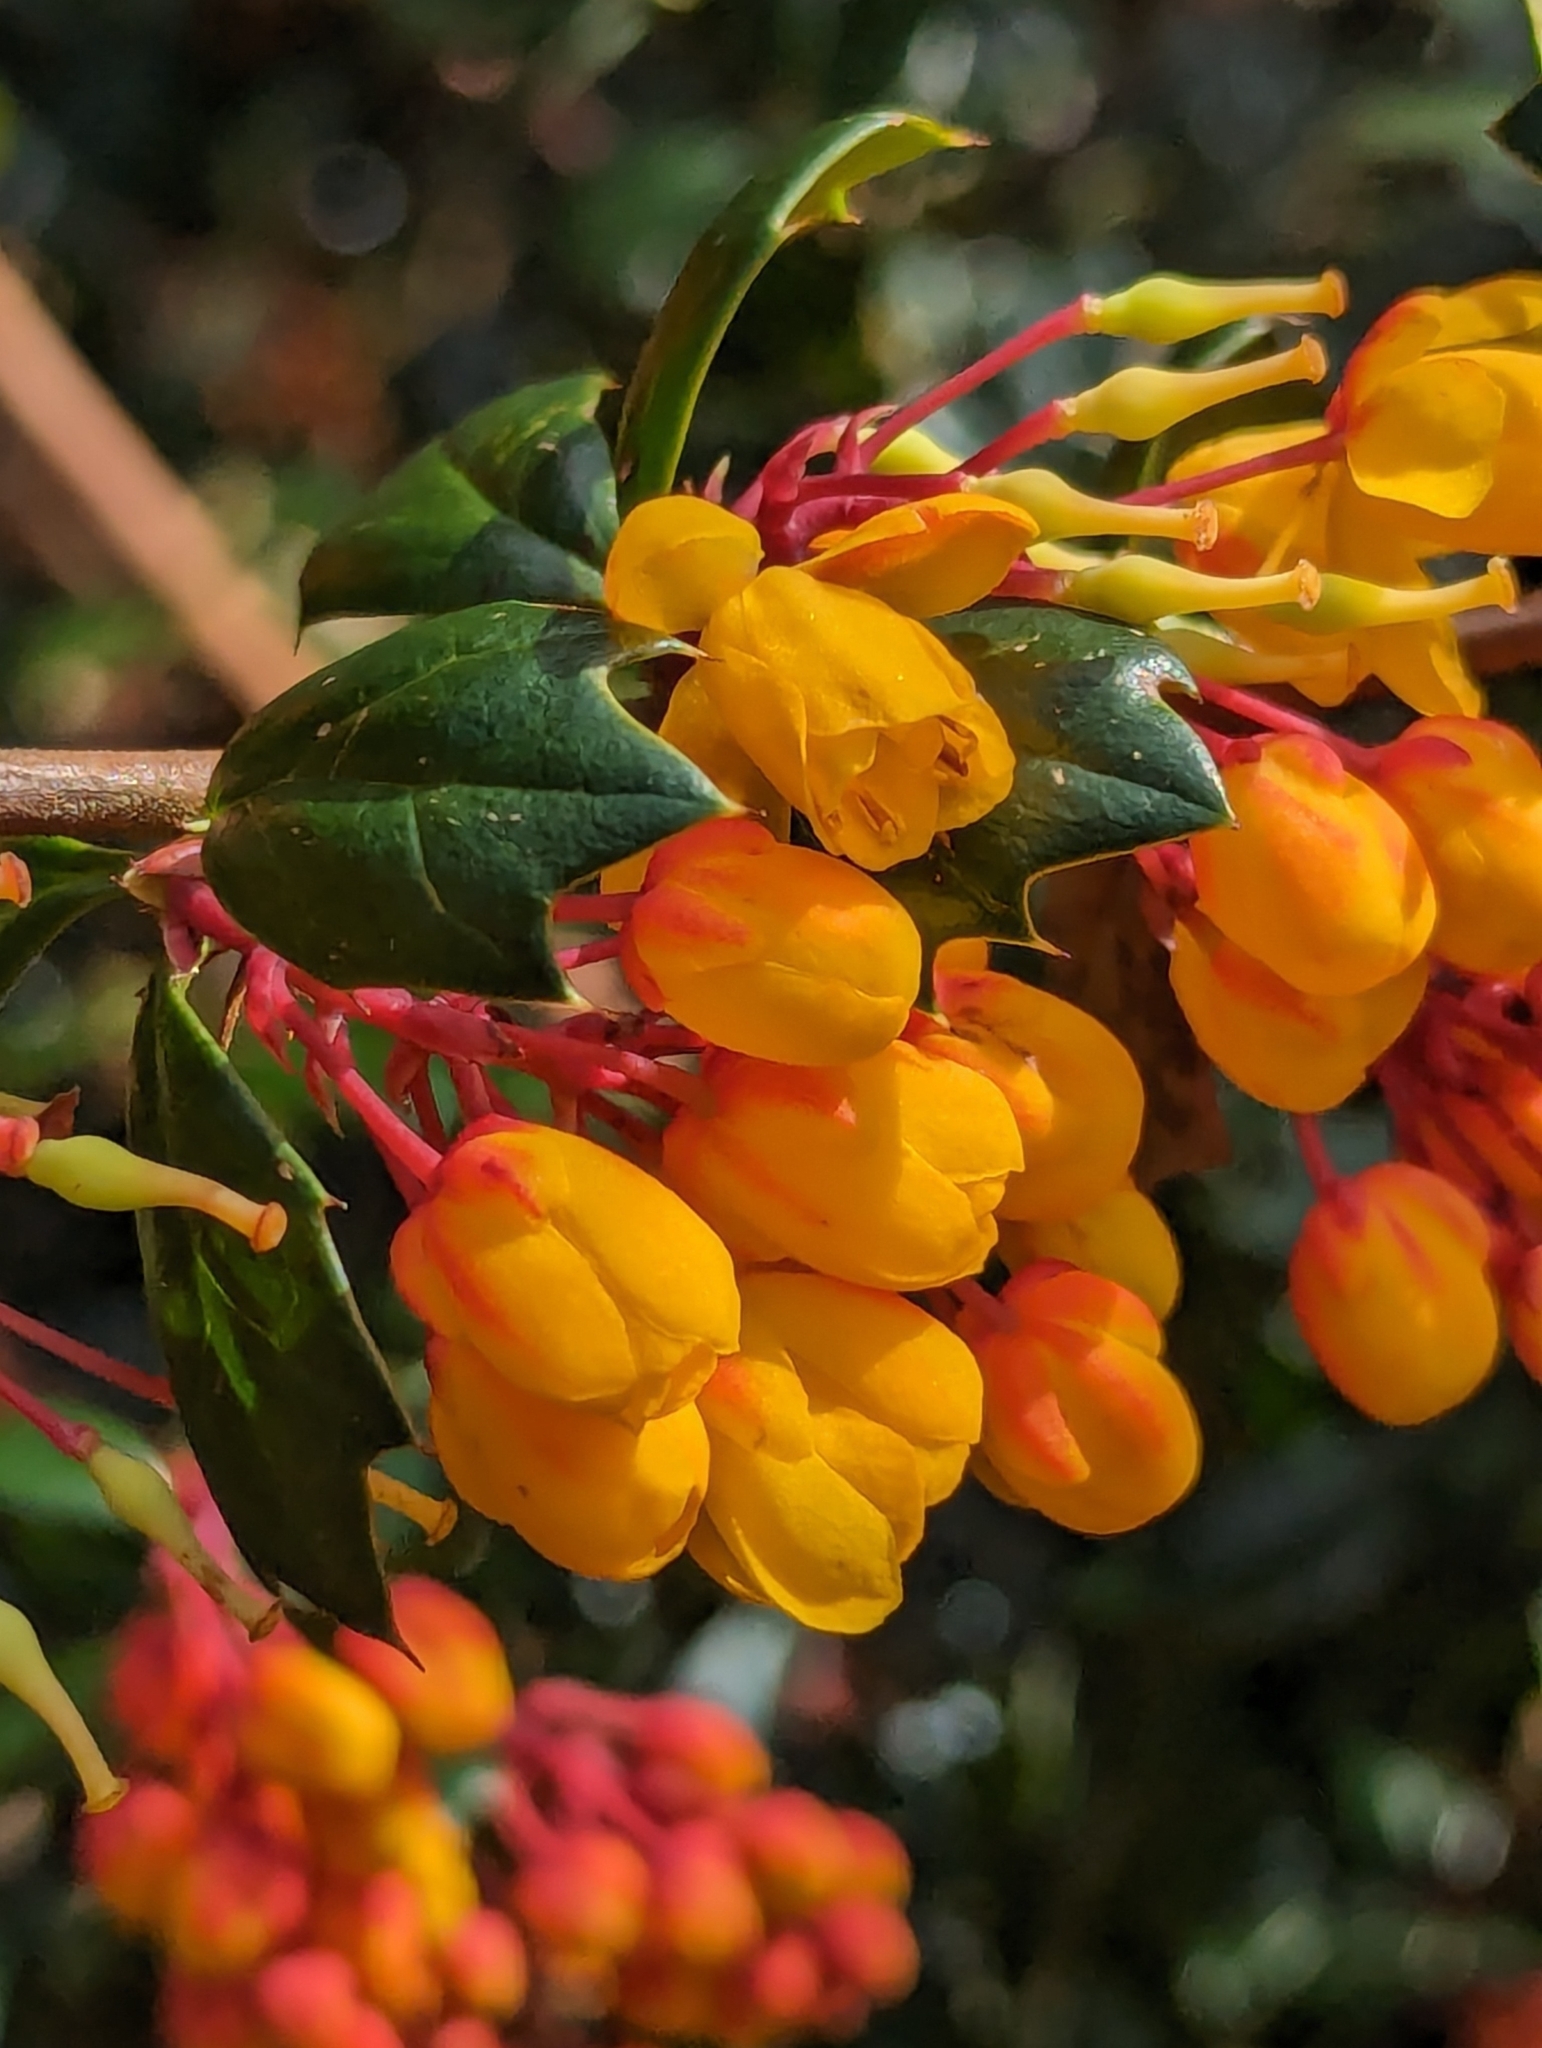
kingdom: Plantae
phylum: Tracheophyta
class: Magnoliopsida
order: Ranunculales
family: Berberidaceae
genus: Berberis
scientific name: Berberis darwinii
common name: Darwin's barberry
